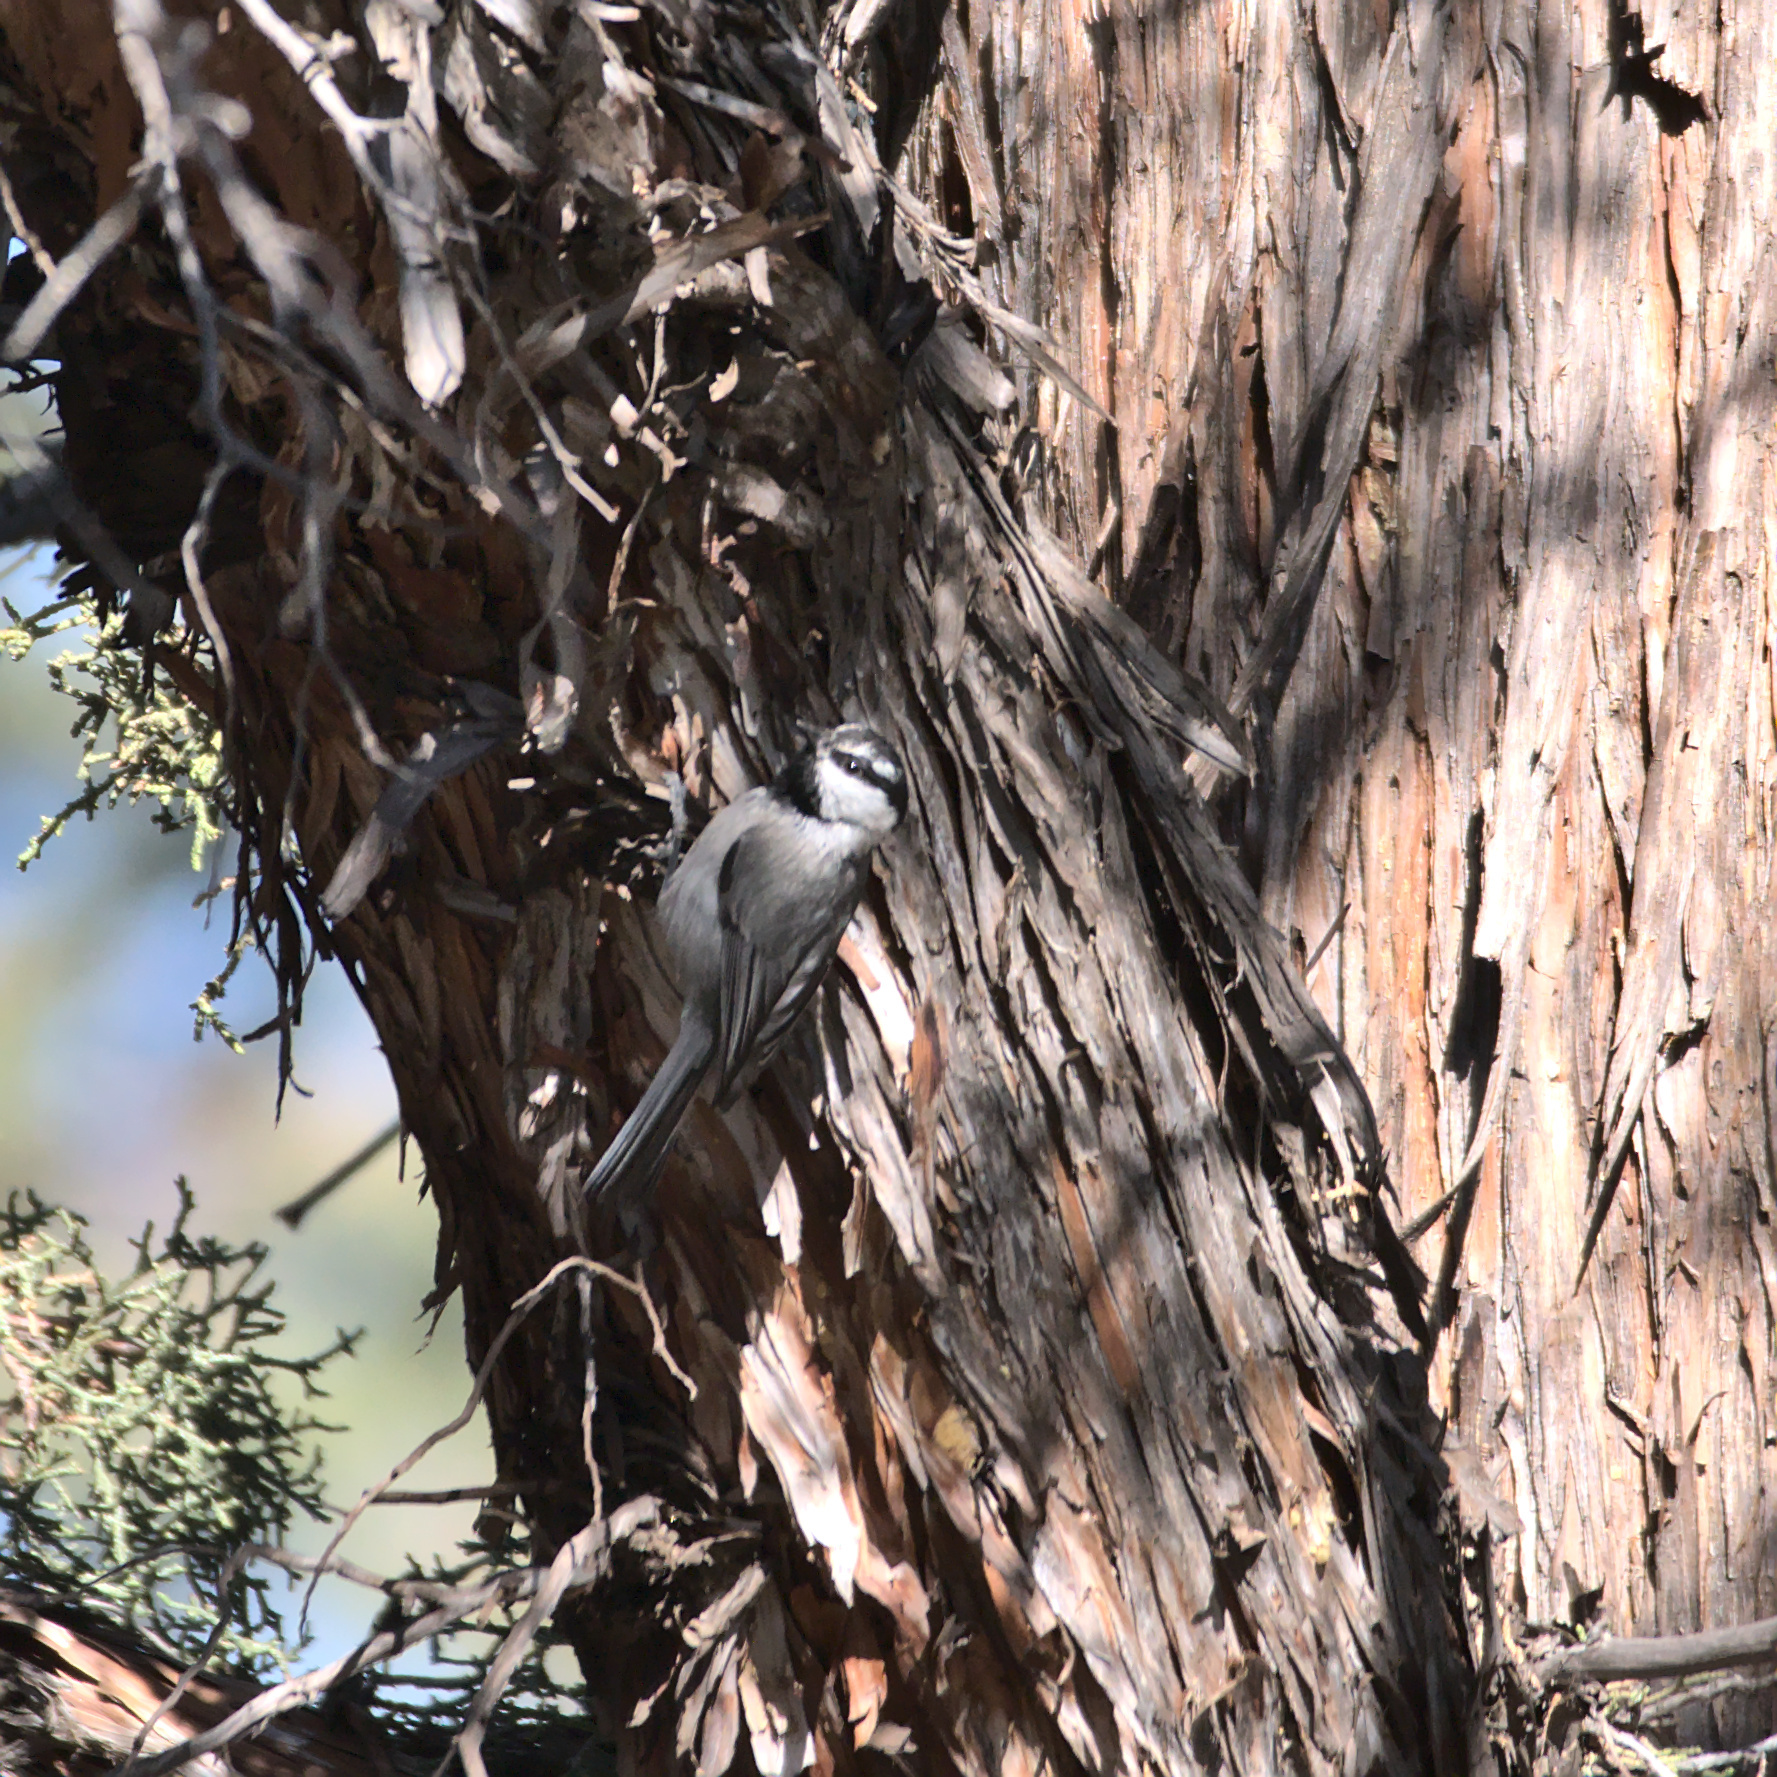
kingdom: Animalia
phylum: Chordata
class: Aves
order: Passeriformes
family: Paridae
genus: Poecile
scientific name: Poecile gambeli
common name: Mountain chickadee
